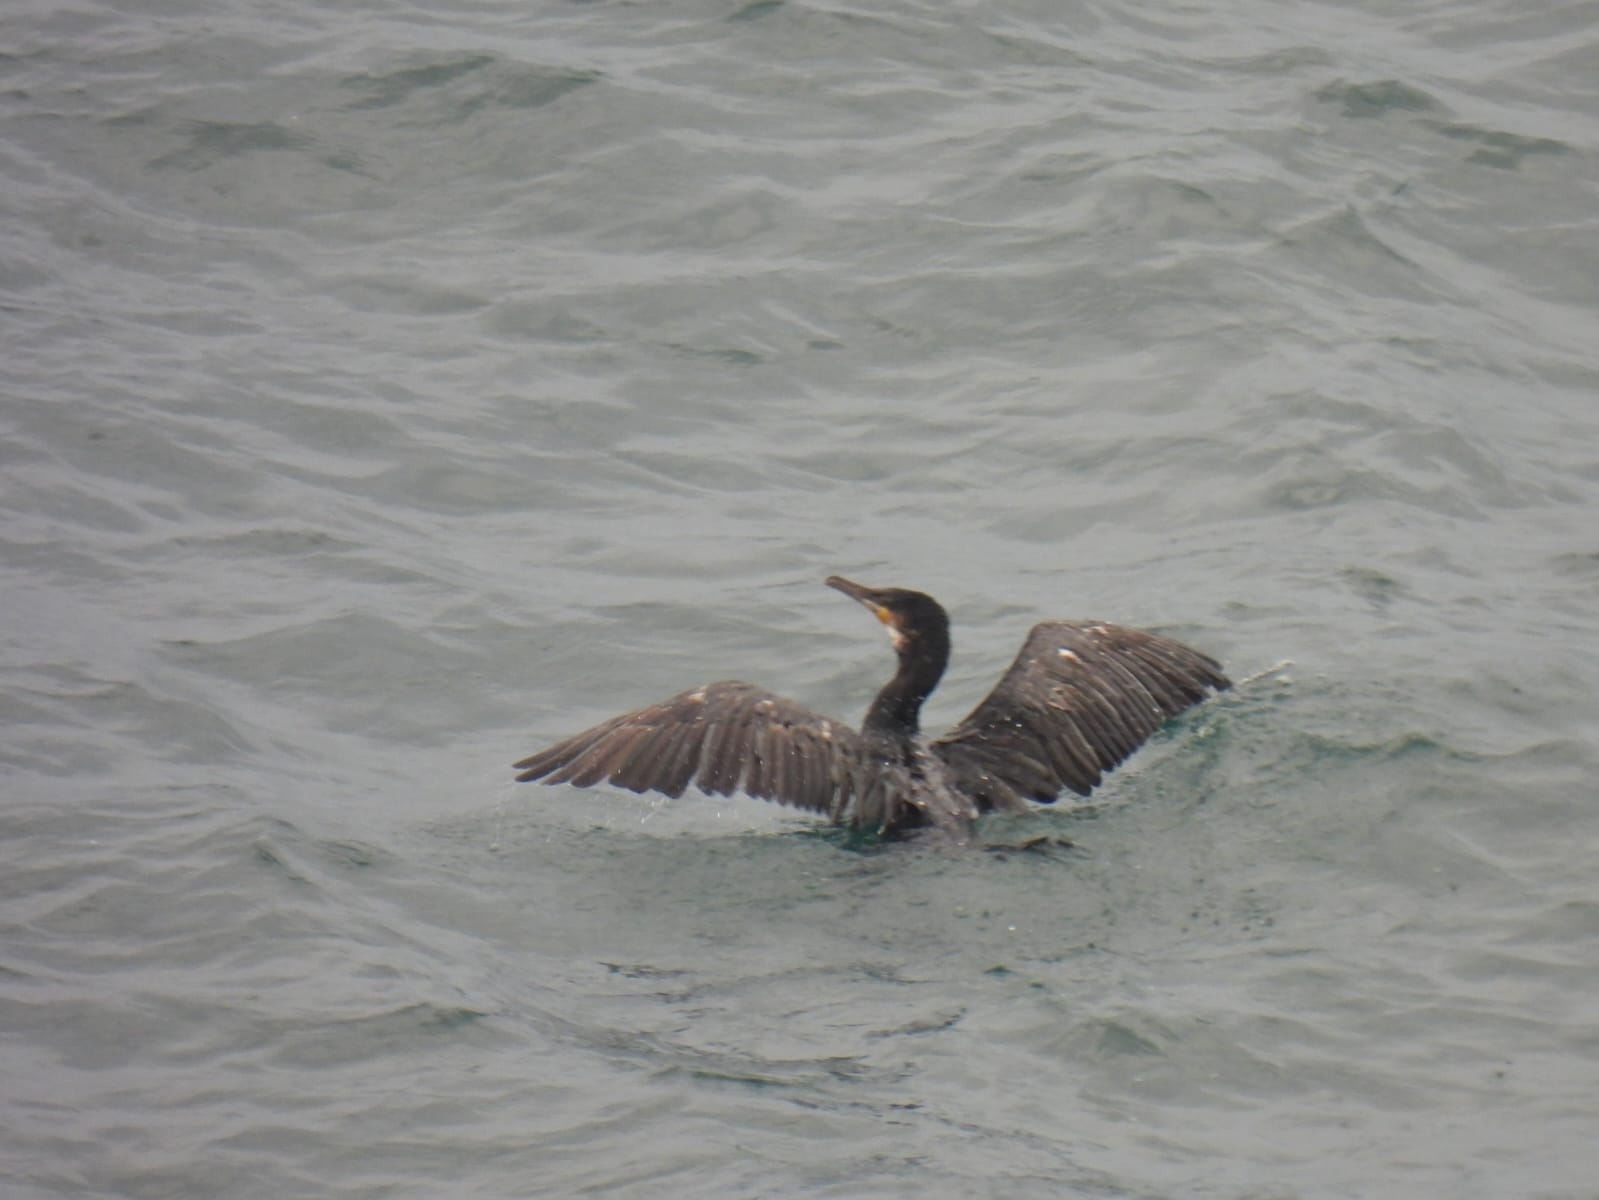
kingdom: Animalia
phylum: Chordata
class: Aves
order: Suliformes
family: Phalacrocoracidae
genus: Phalacrocorax
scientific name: Phalacrocorax aristotelis
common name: European shag
